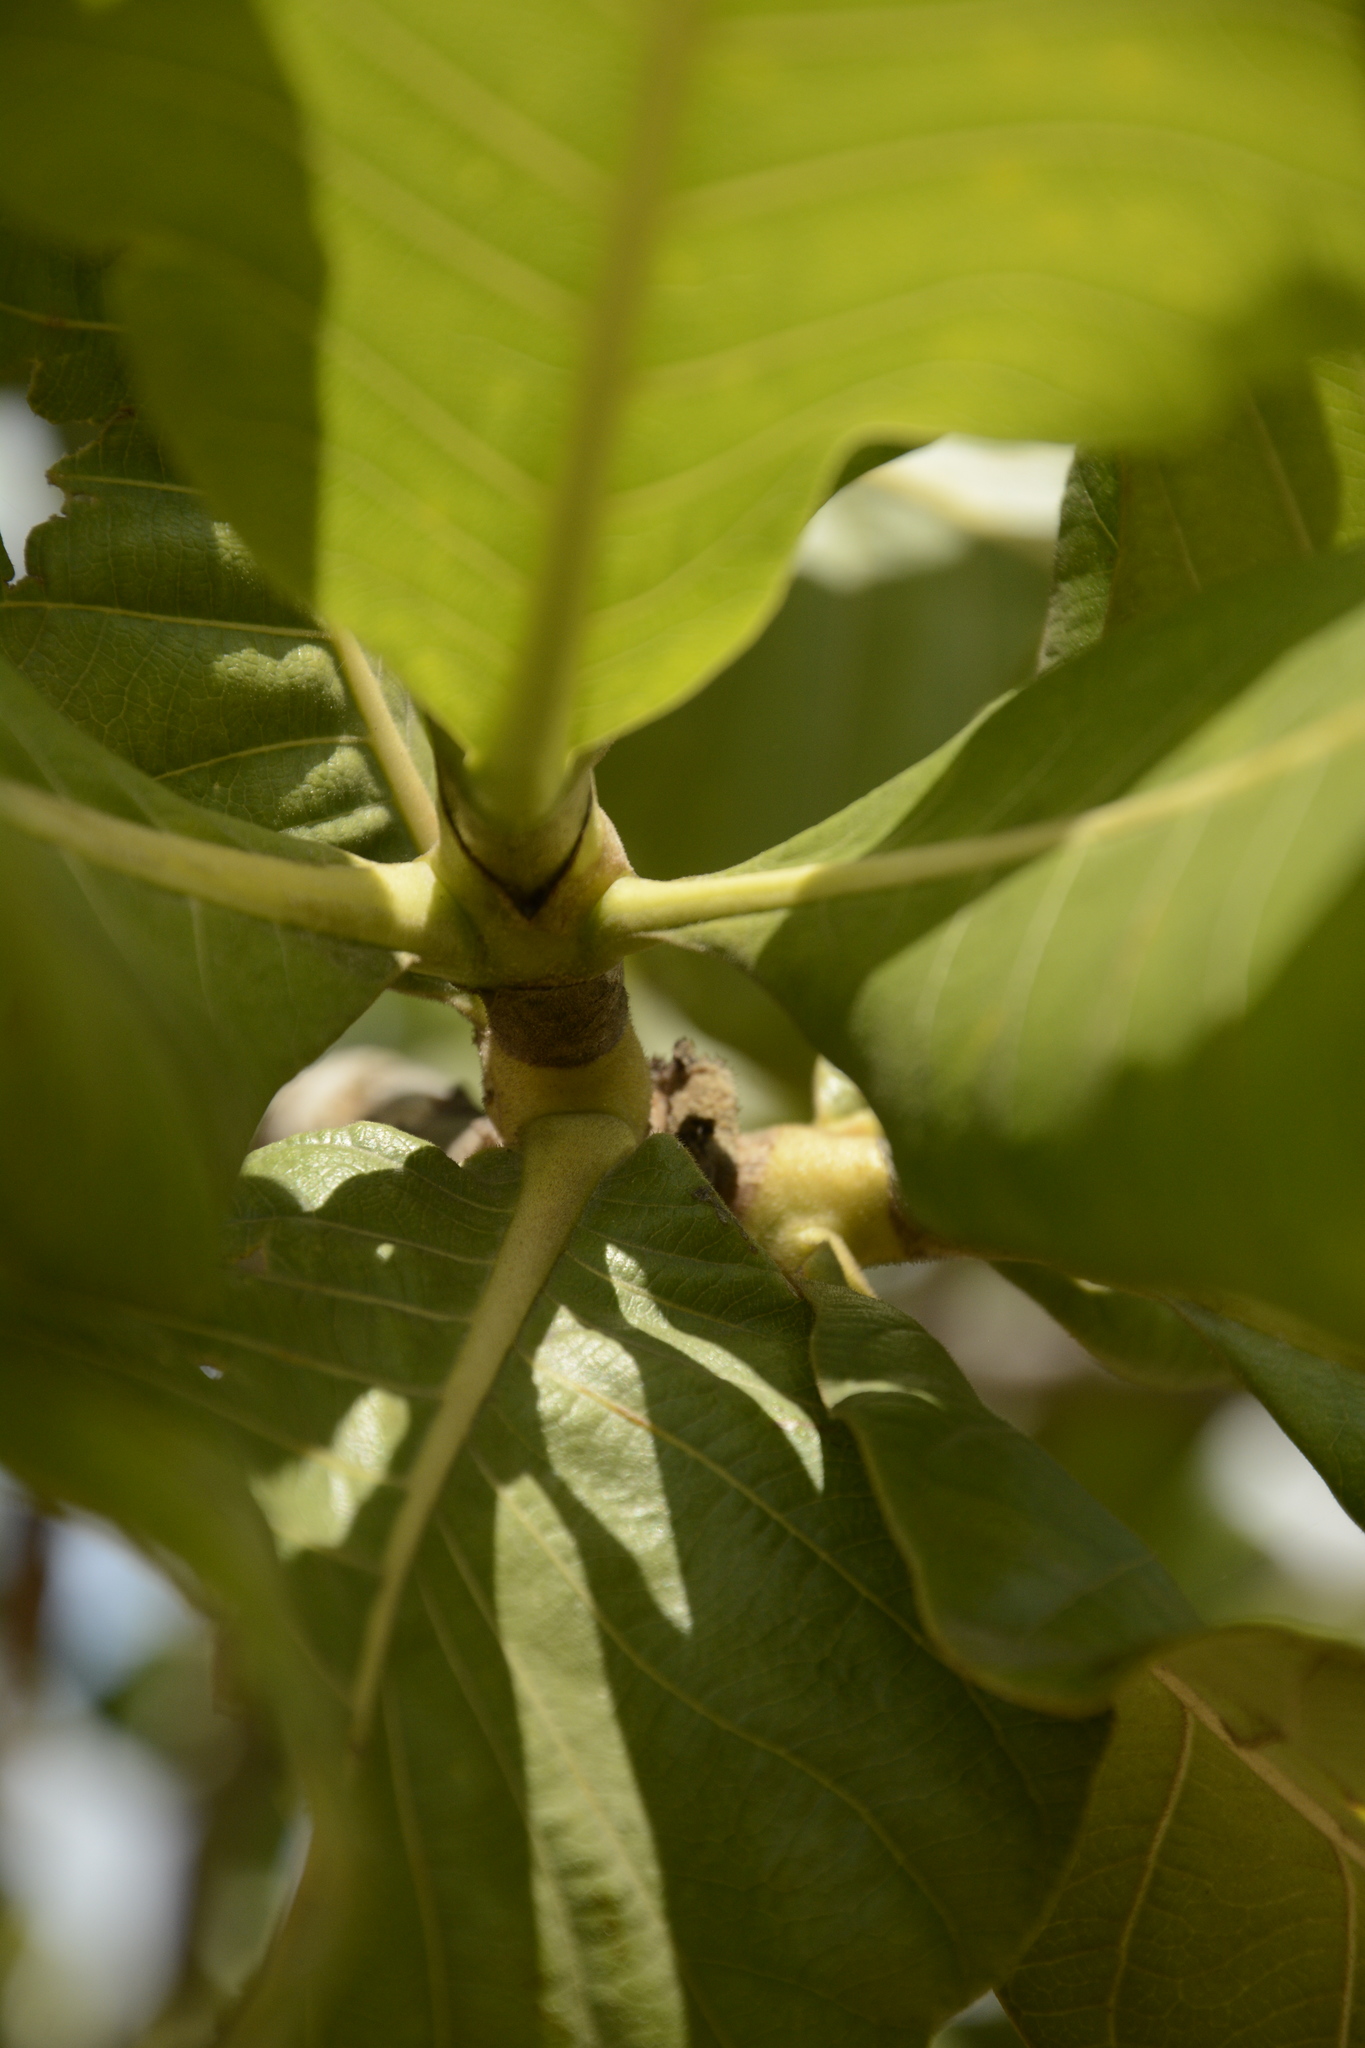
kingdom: Plantae
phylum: Tracheophyta
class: Magnoliopsida
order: Gentianales
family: Rubiaceae
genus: Gardenia
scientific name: Gardenia latifolia
